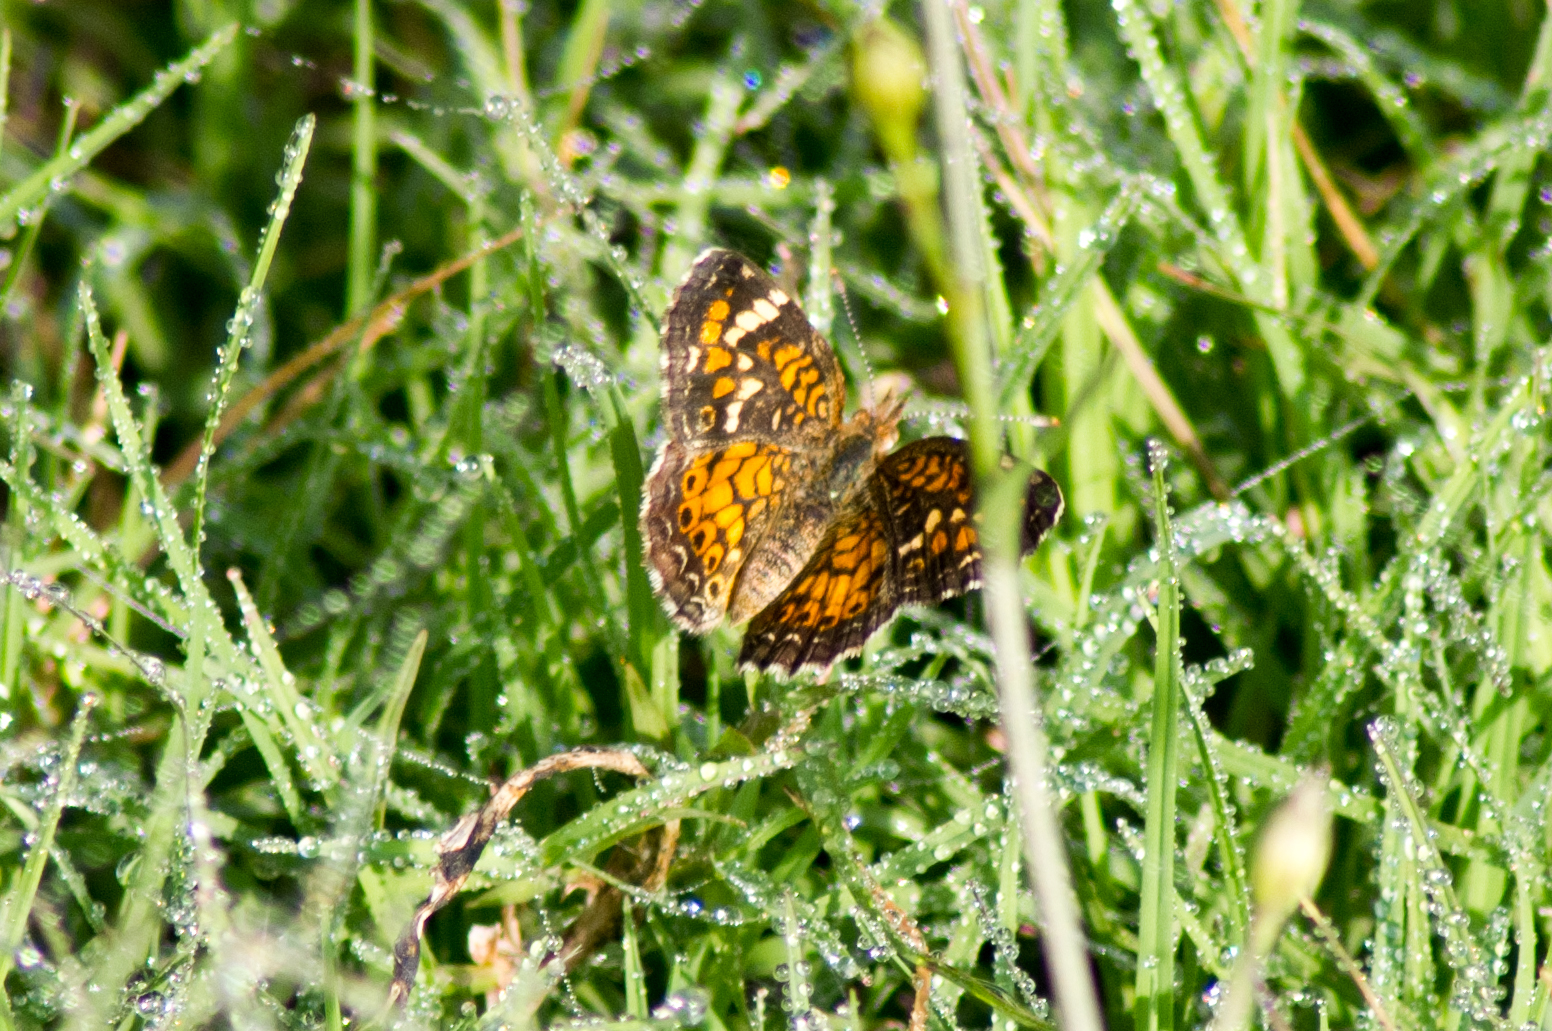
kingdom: Animalia
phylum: Arthropoda
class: Insecta
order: Lepidoptera
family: Nymphalidae
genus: Phyciodes
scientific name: Phyciodes phaon
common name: Phaon crescent
